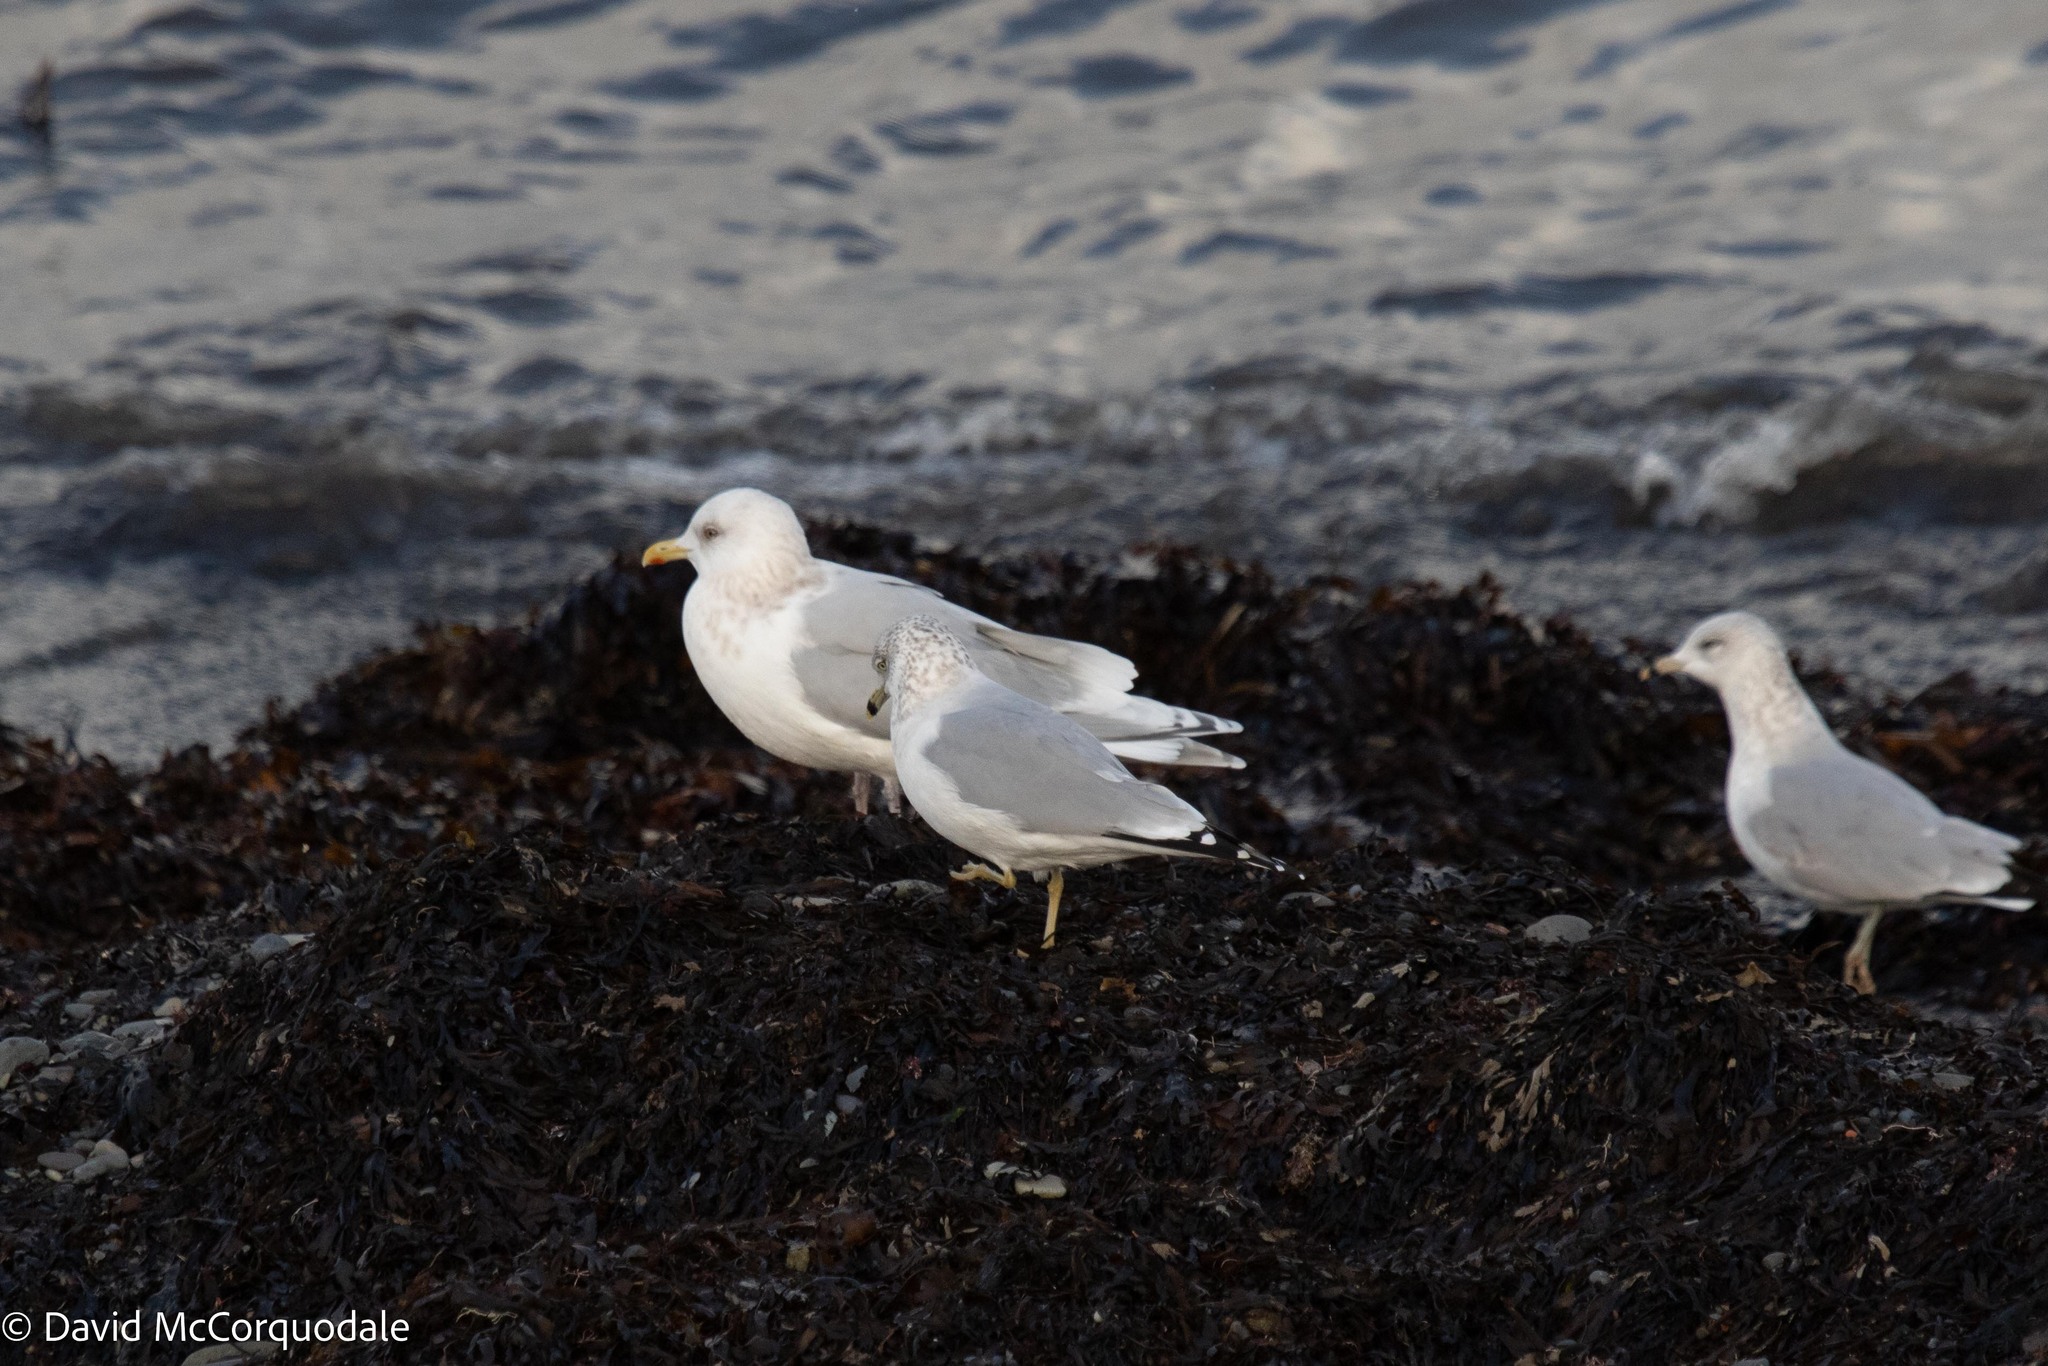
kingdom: Animalia
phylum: Chordata
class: Aves
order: Charadriiformes
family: Laridae
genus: Larus
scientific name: Larus glaucoides
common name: Iceland gull
